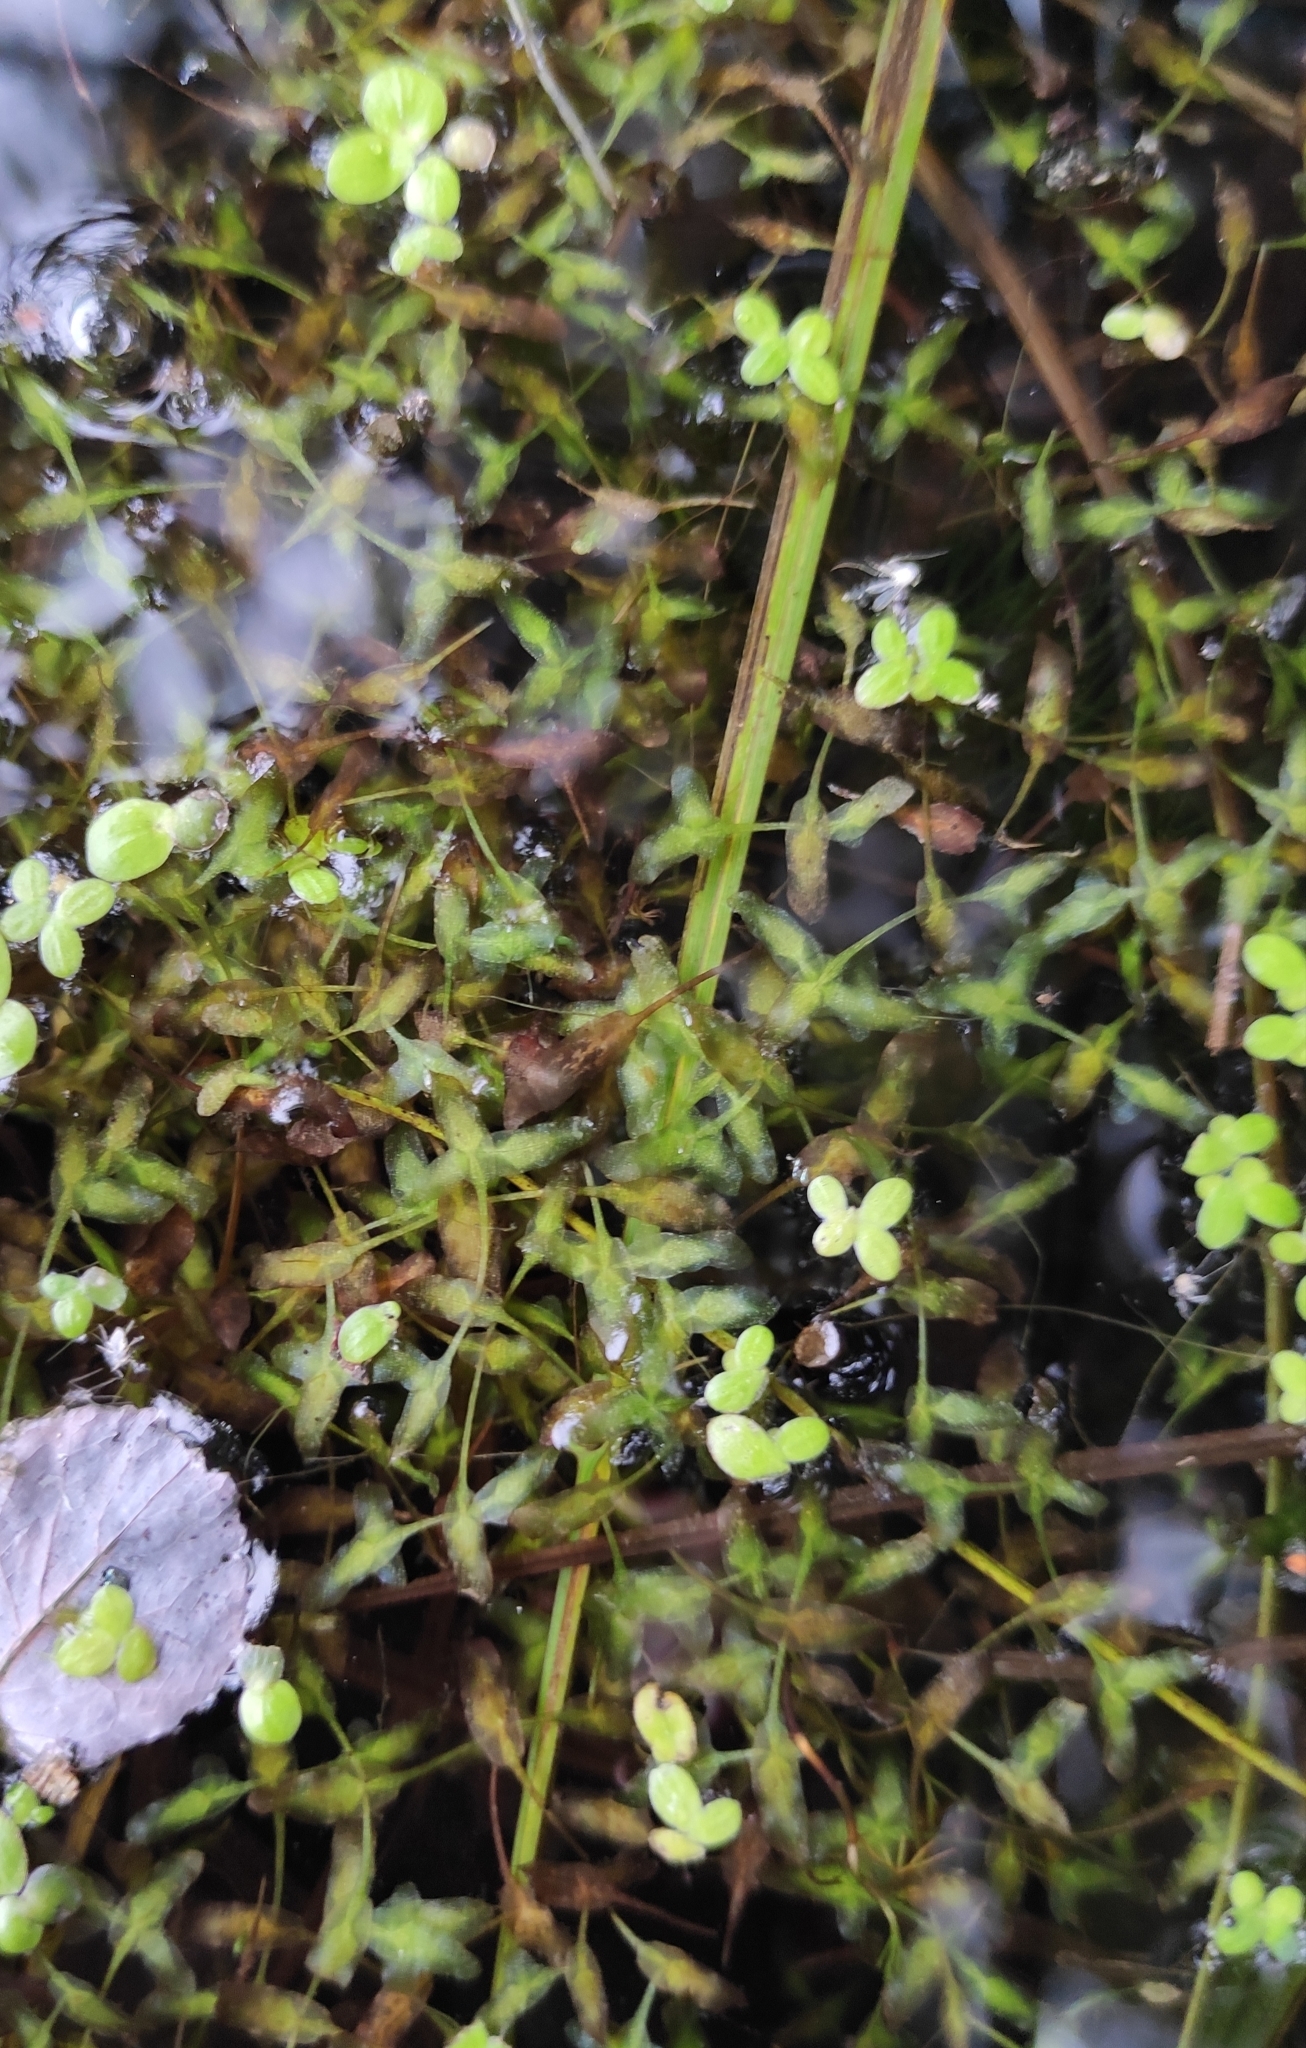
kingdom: Plantae
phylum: Tracheophyta
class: Liliopsida
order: Alismatales
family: Araceae
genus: Lemna
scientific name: Lemna trisulca
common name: Ivy-leaved duckweed
